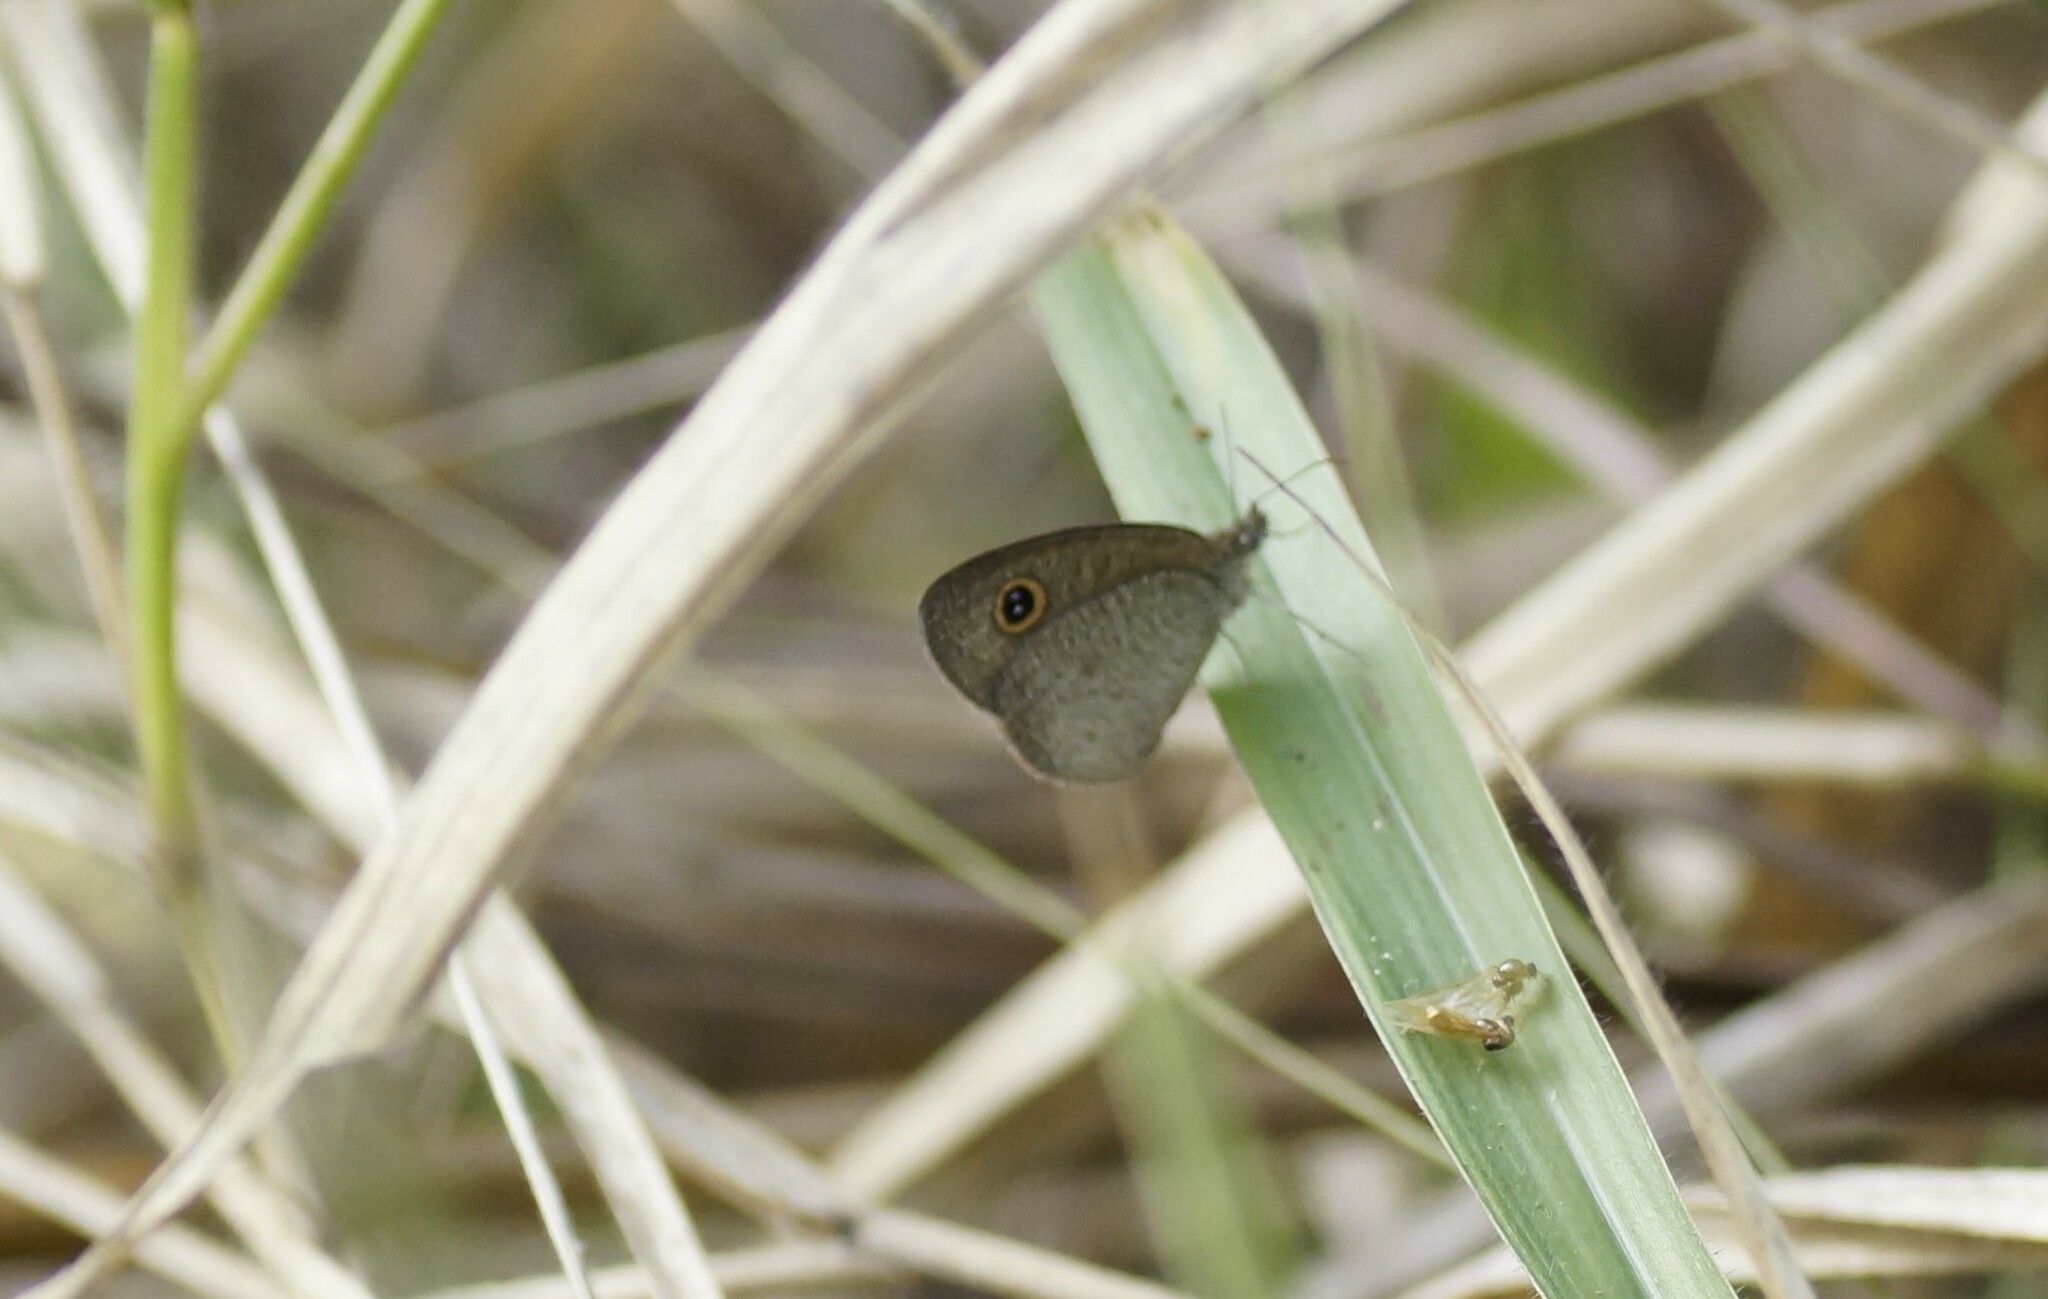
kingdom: Animalia
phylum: Arthropoda
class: Insecta
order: Lepidoptera
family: Nymphalidae
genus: Ypthima
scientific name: Ypthima arctous
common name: Dusky knight
